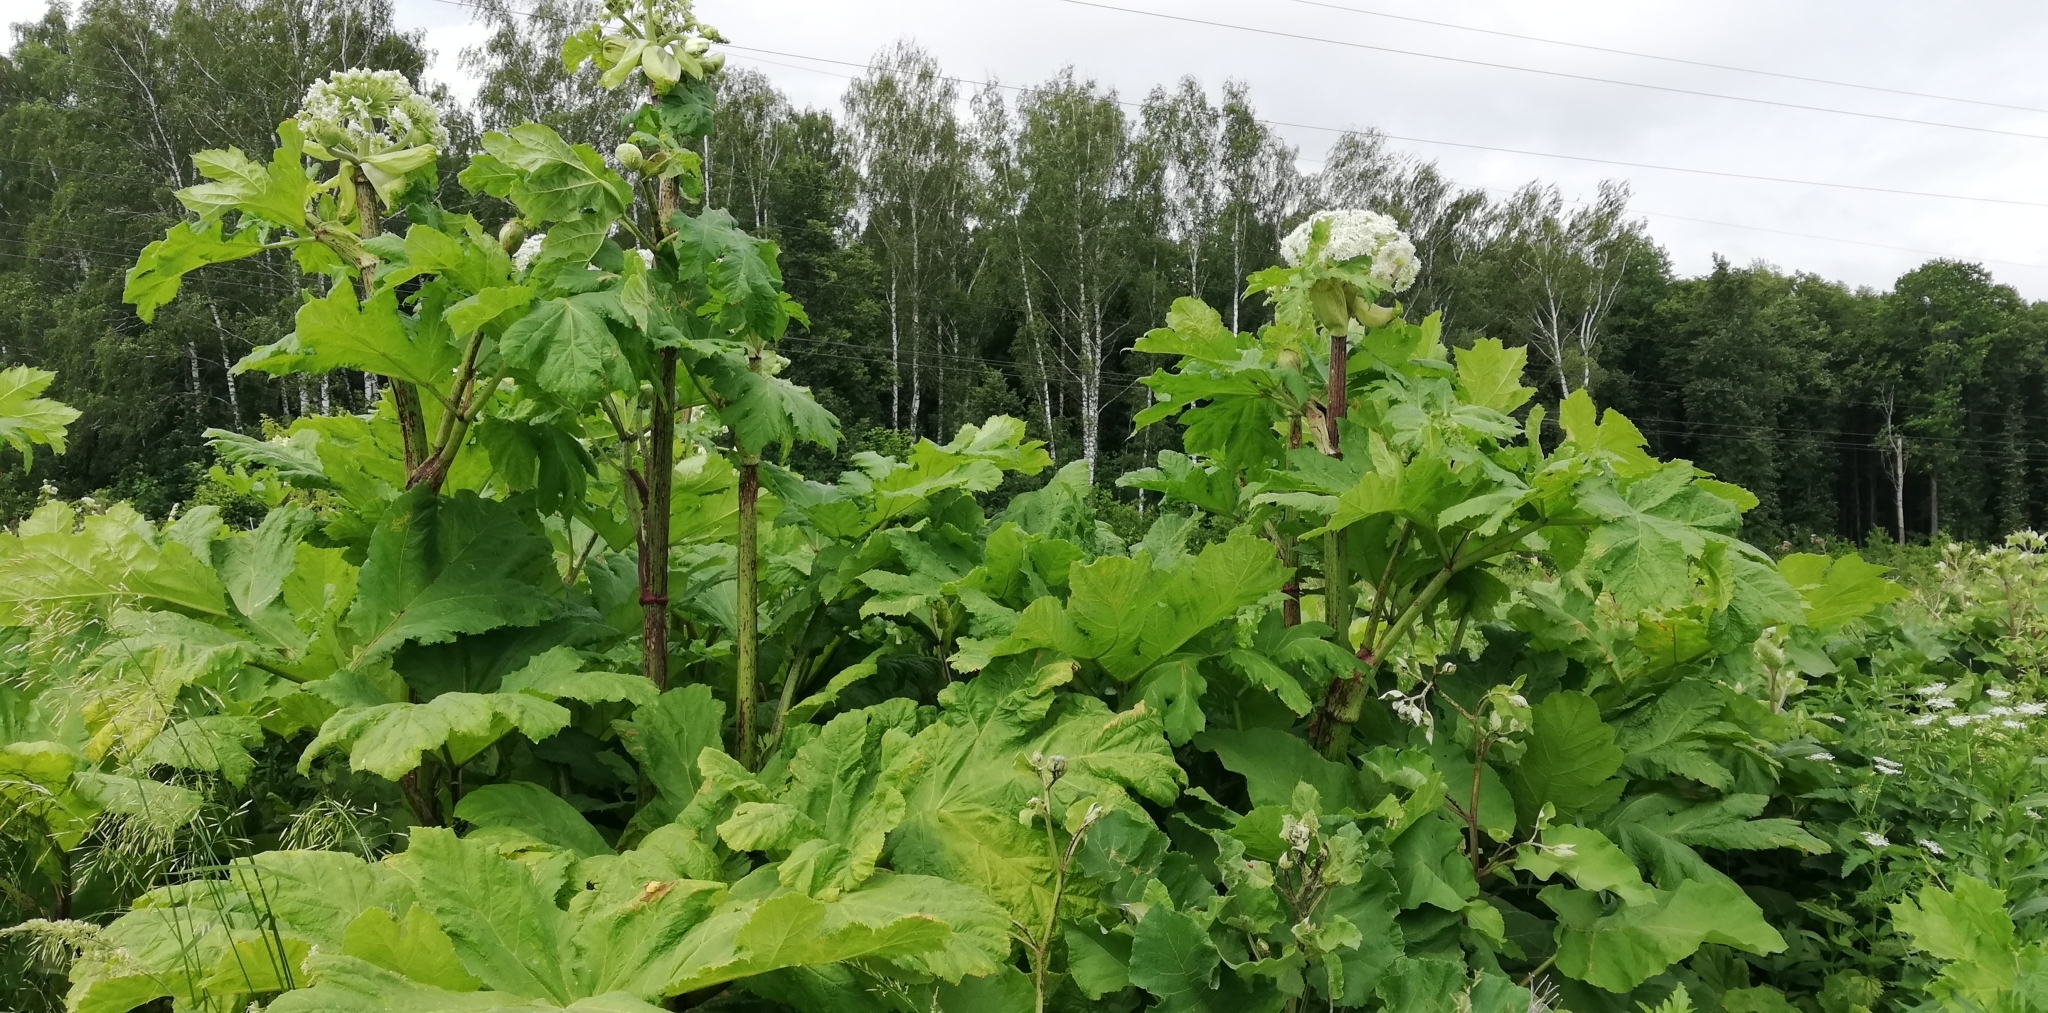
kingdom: Plantae
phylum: Tracheophyta
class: Magnoliopsida
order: Apiales
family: Apiaceae
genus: Heracleum
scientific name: Heracleum sosnowskyi
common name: Sosnowsky's hogweed
